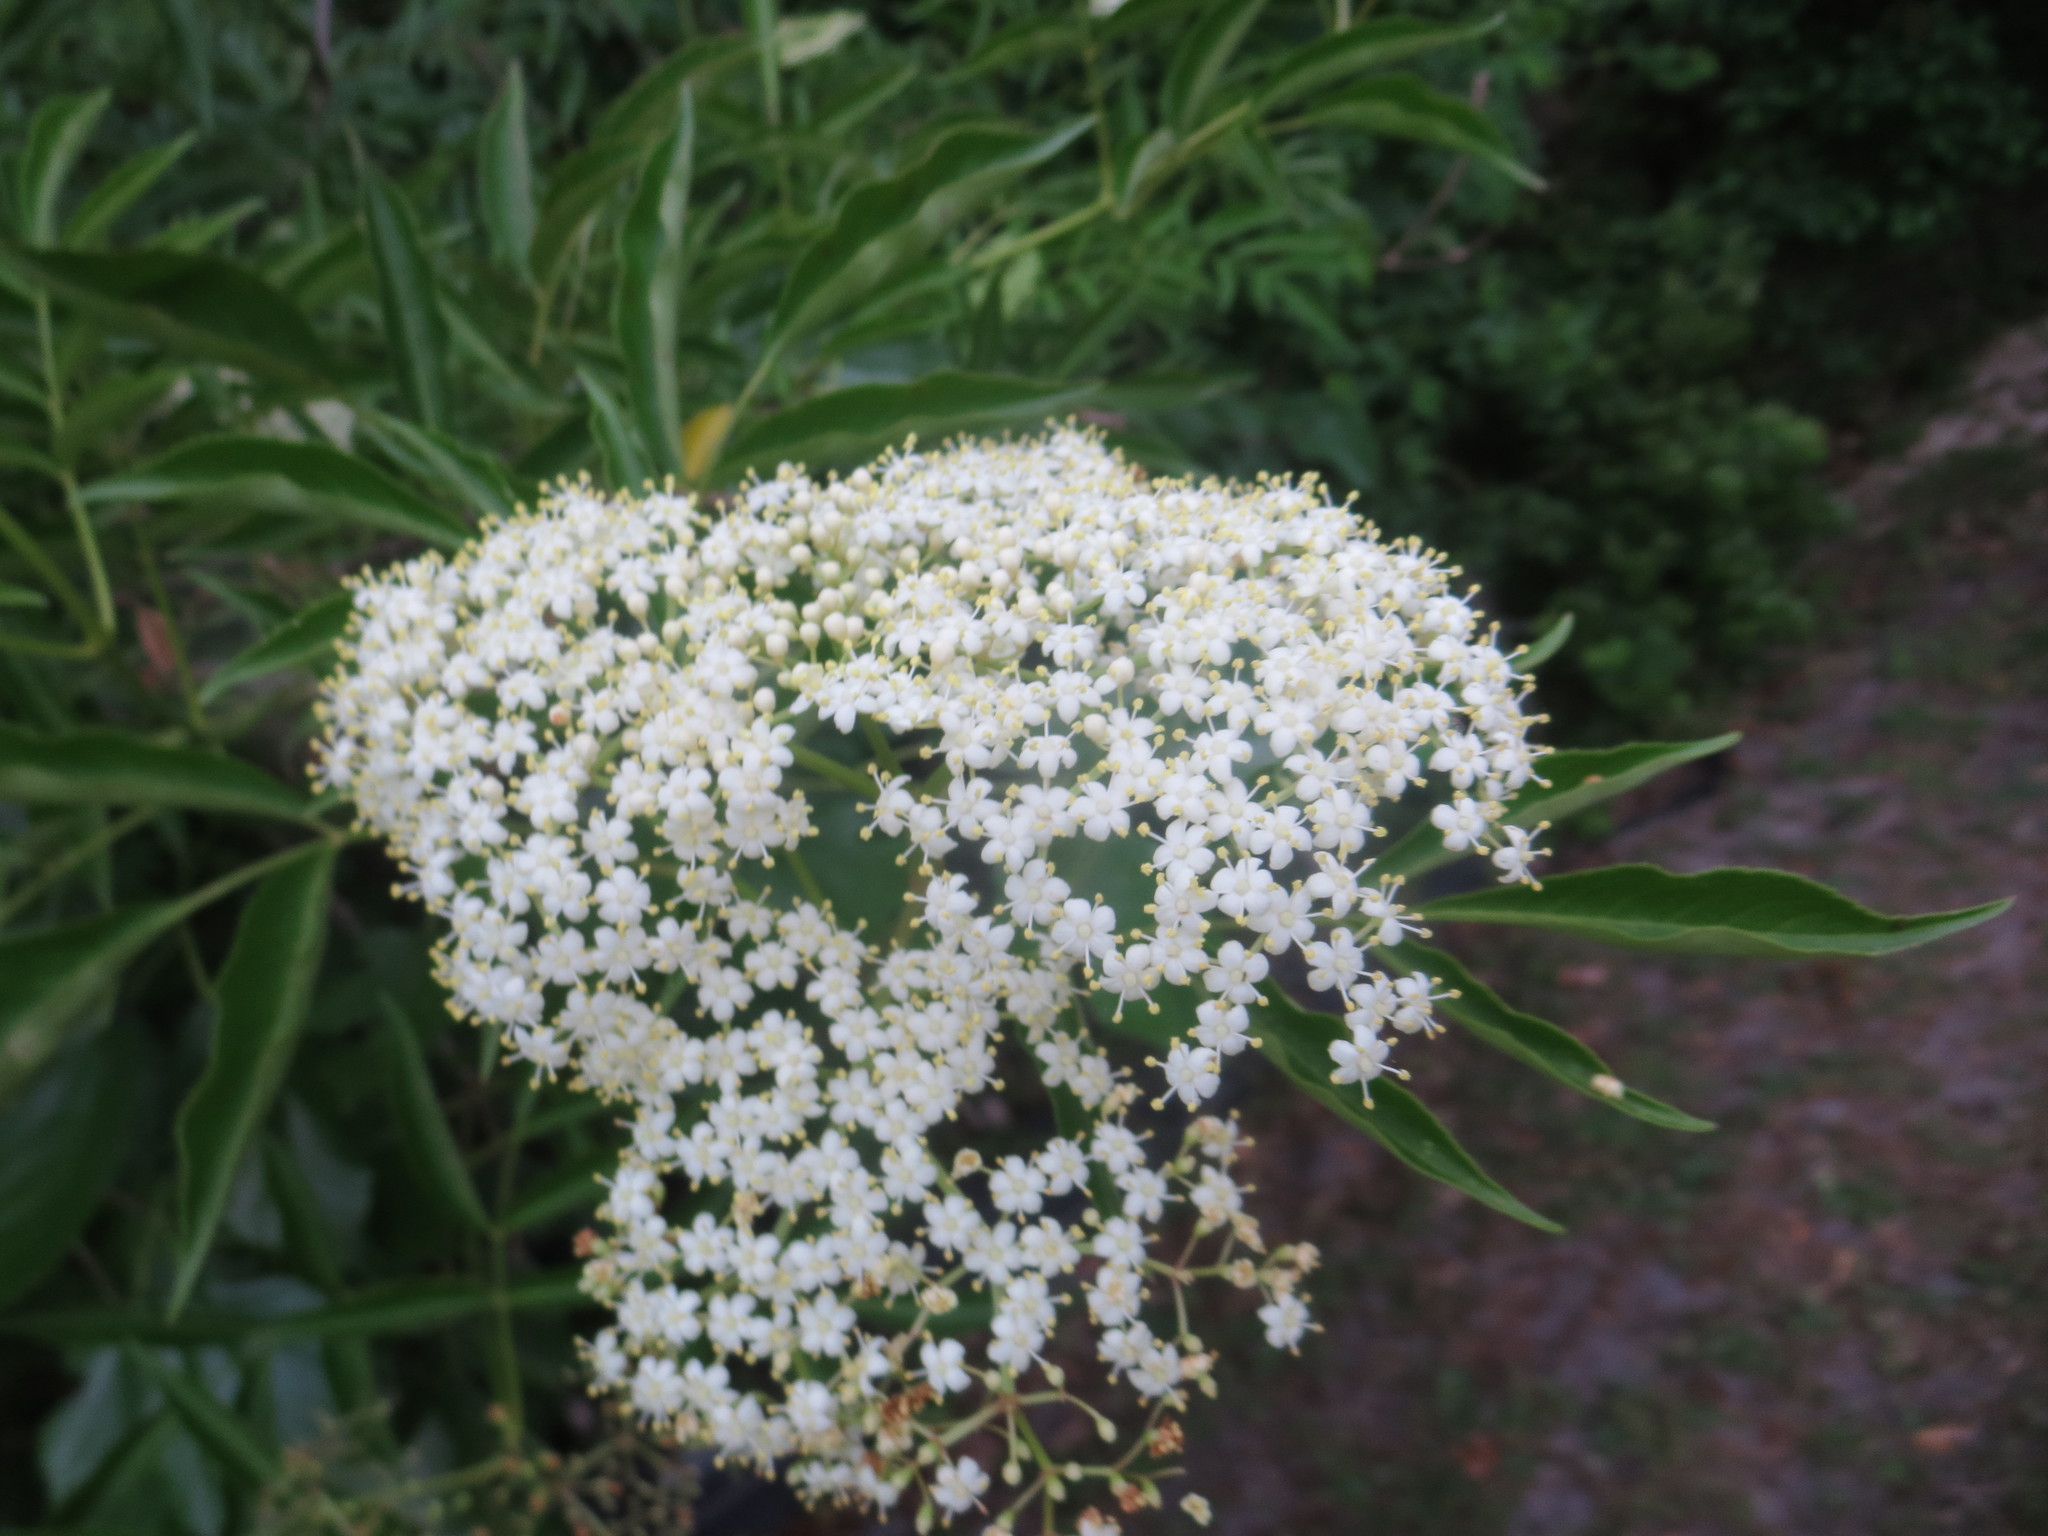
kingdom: Plantae
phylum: Tracheophyta
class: Magnoliopsida
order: Dipsacales
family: Viburnaceae
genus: Sambucus
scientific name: Sambucus canadensis
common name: American elder
